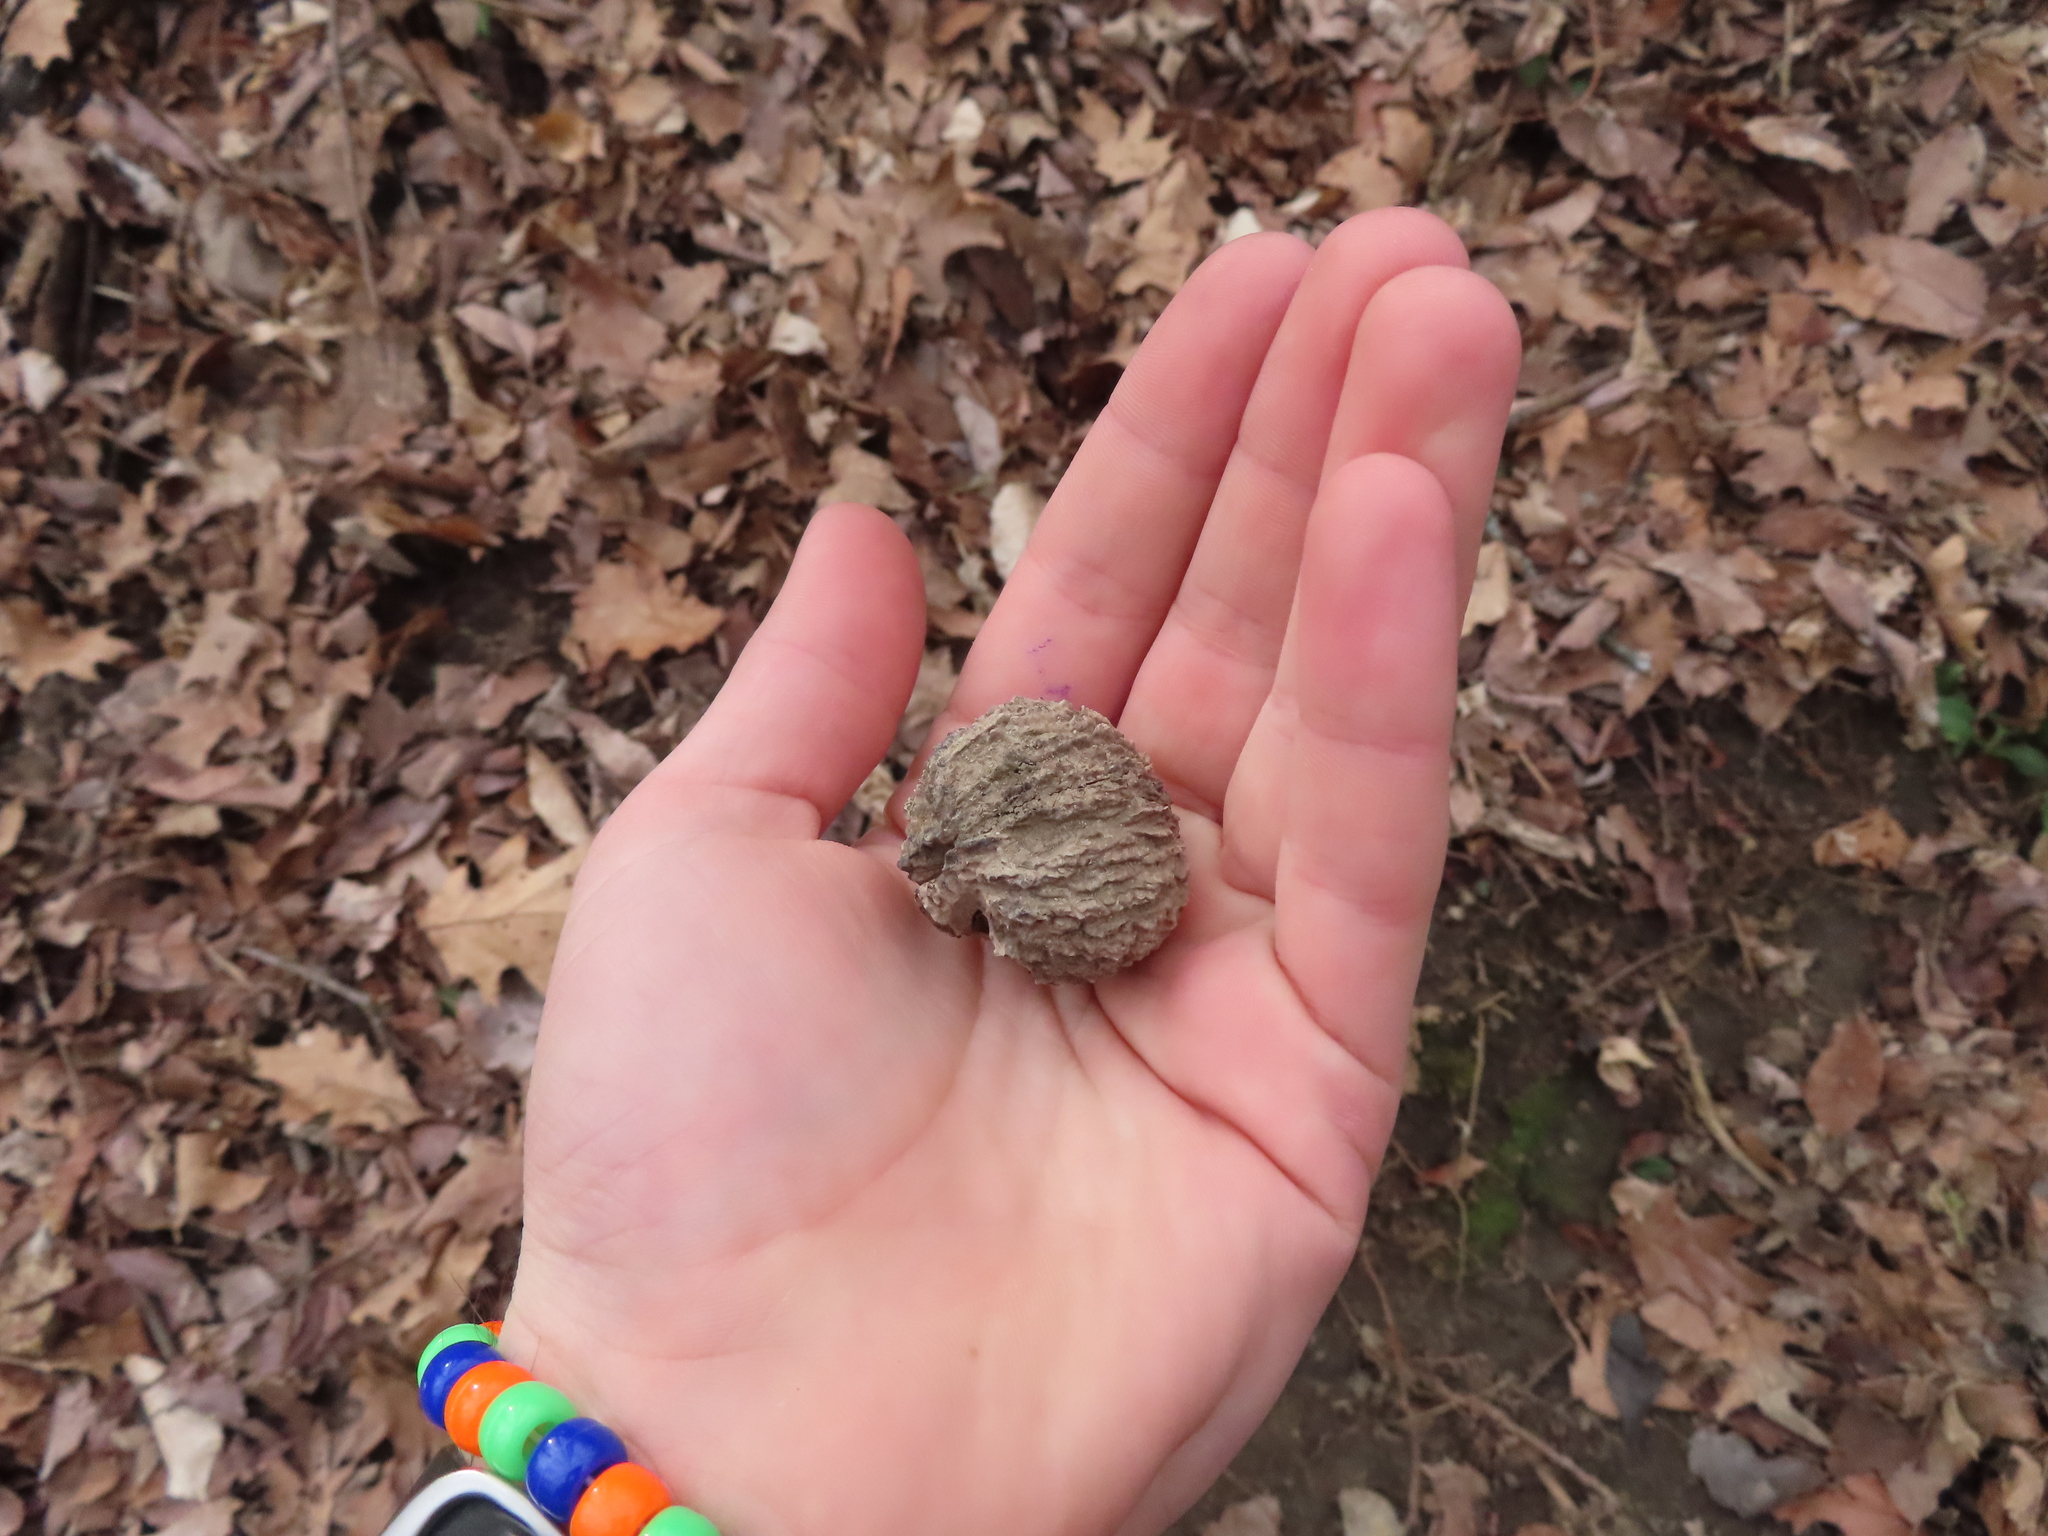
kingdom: Plantae
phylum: Tracheophyta
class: Magnoliopsida
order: Fagales
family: Juglandaceae
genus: Juglans
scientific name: Juglans nigra
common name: Black walnut
